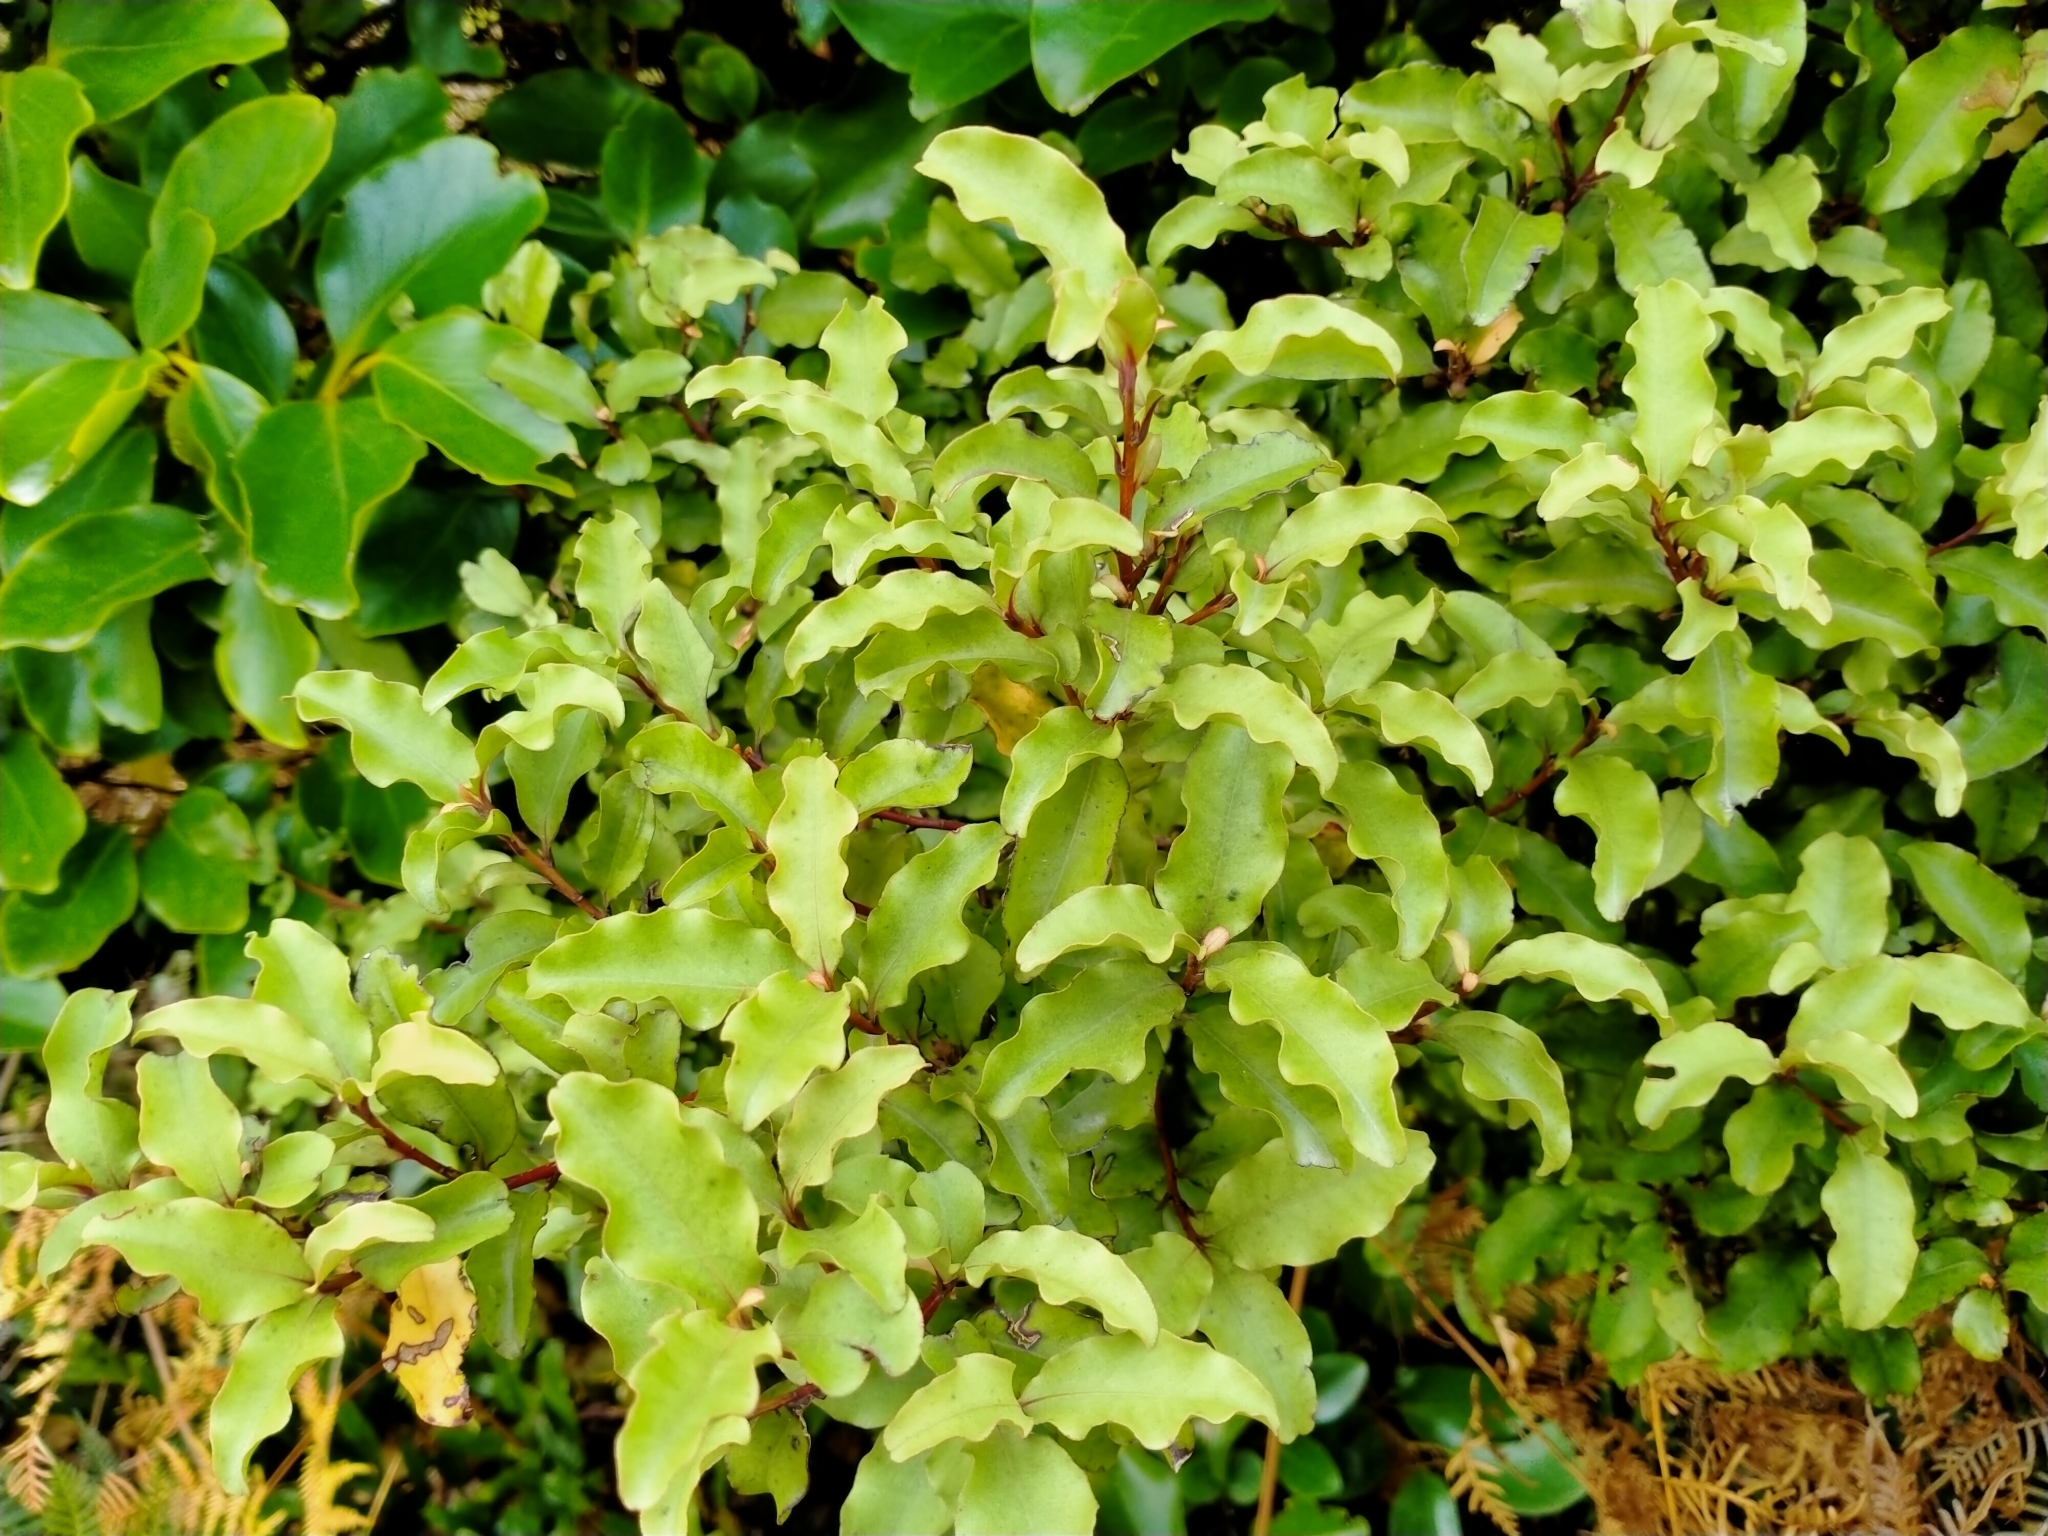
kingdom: Plantae
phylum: Tracheophyta
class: Magnoliopsida
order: Ericales
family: Primulaceae
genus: Myrsine
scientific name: Myrsine australis
